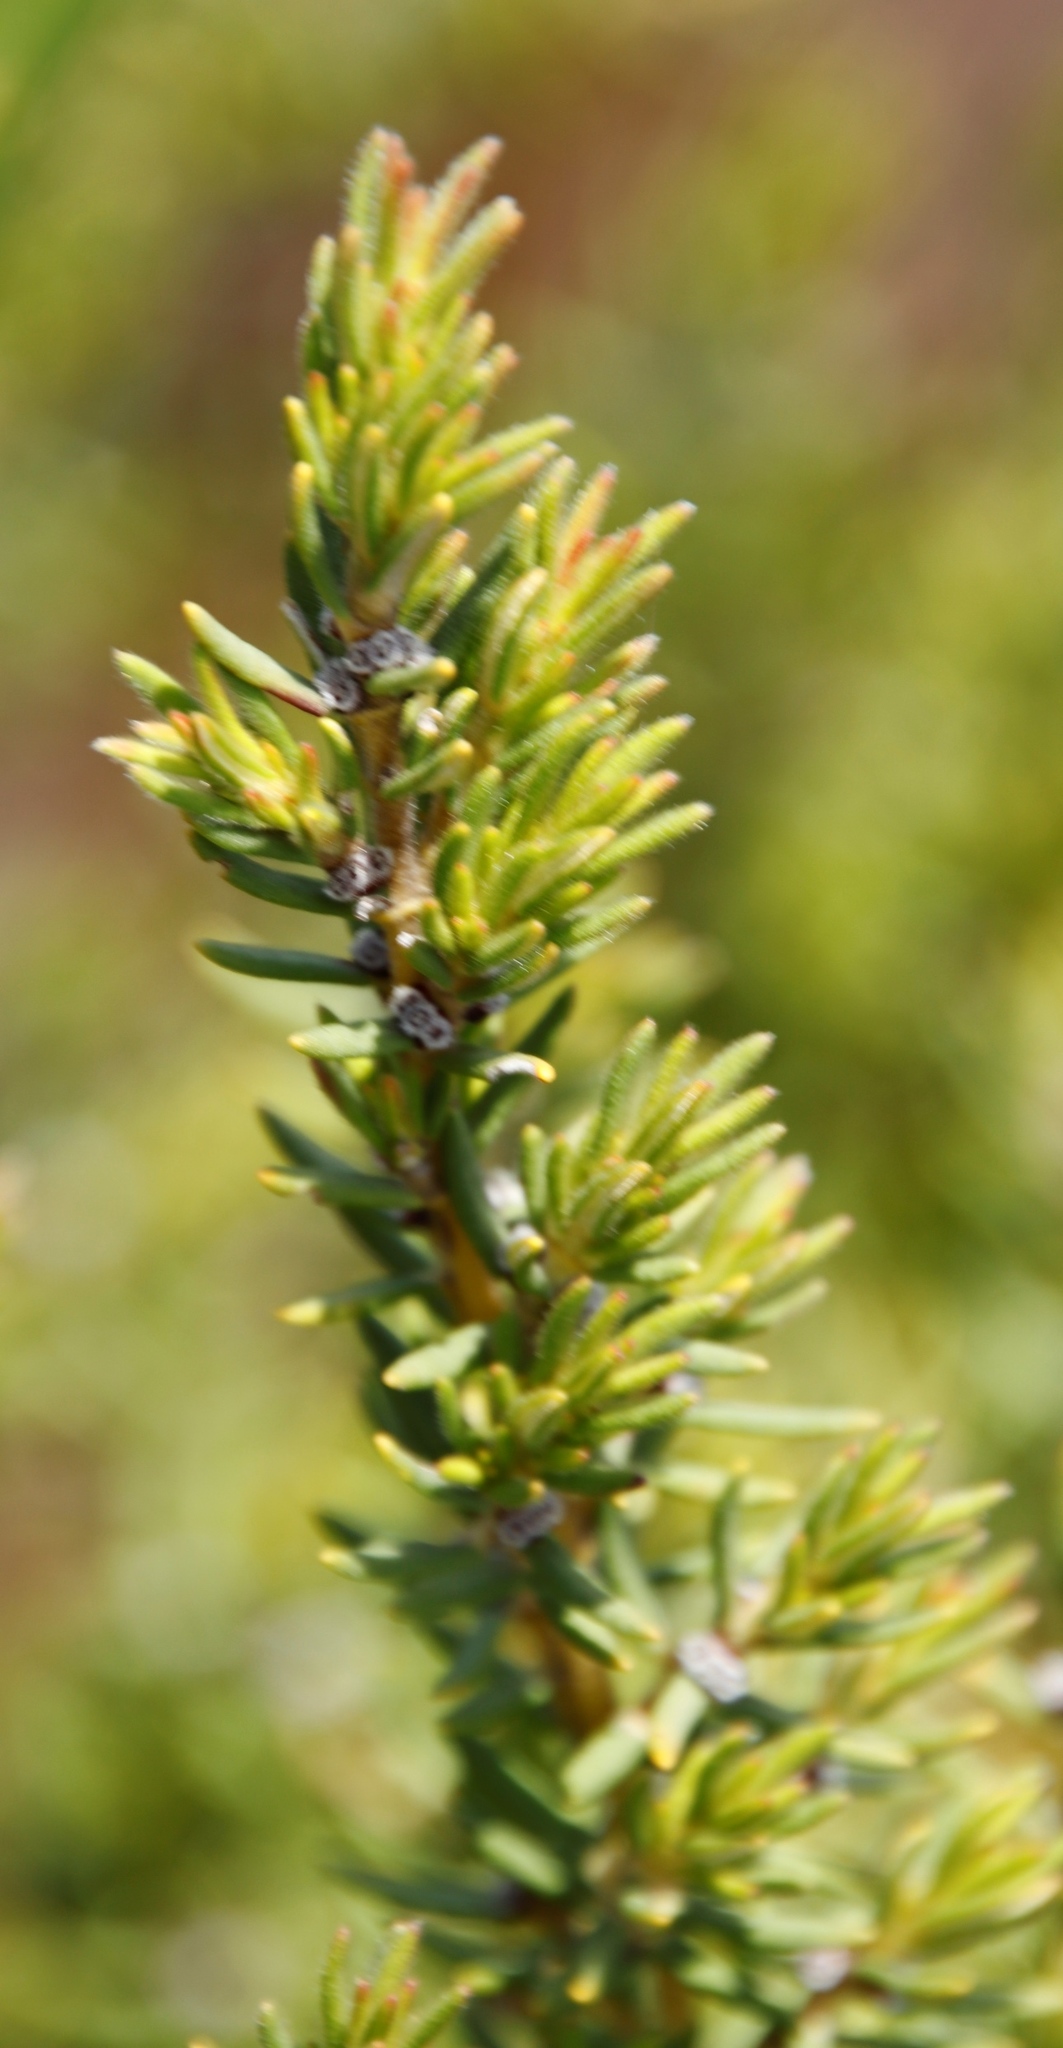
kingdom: Plantae
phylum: Tracheophyta
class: Magnoliopsida
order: Cornales
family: Grubbiaceae
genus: Grubbia
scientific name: Grubbia rosmarinifolia
